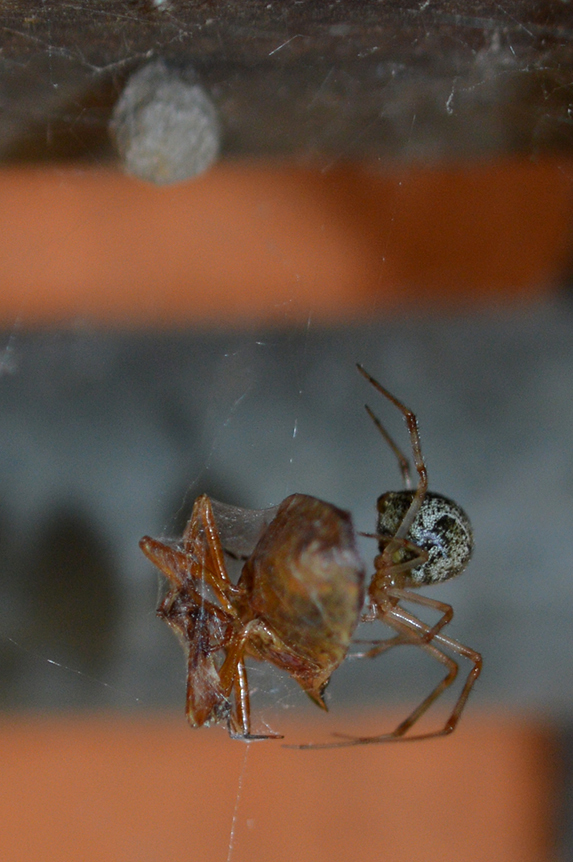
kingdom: Animalia
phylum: Arthropoda
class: Arachnida
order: Araneae
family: Theridiidae
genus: Parasteatoda
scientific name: Parasteatoda tepidariorum
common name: Common house spider
